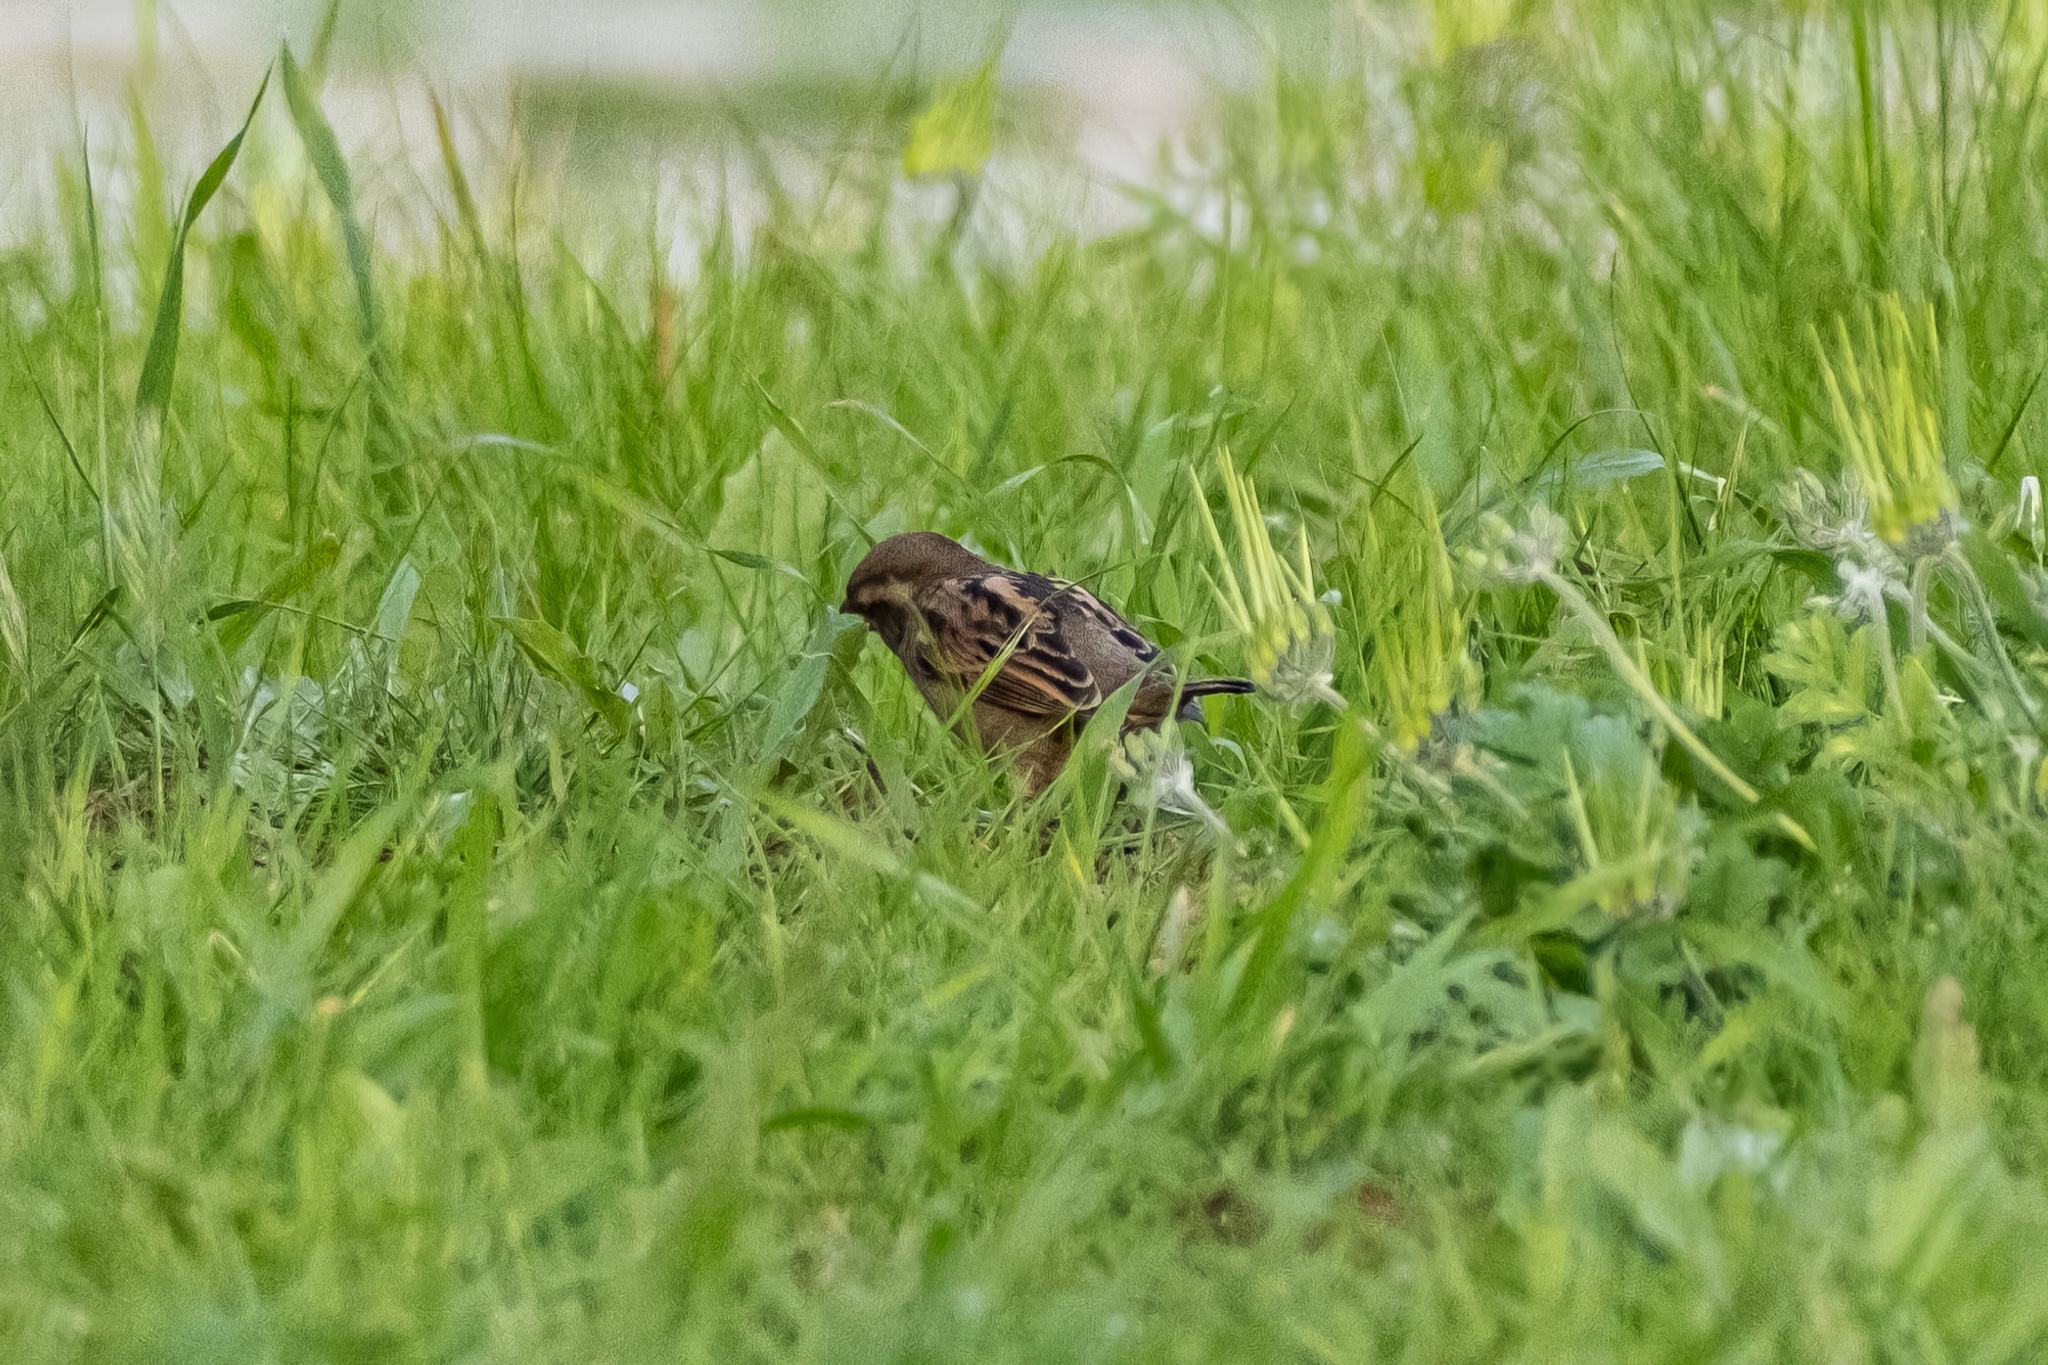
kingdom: Animalia
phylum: Chordata
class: Aves
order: Passeriformes
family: Passeridae
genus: Passer
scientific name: Passer domesticus
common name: House sparrow
